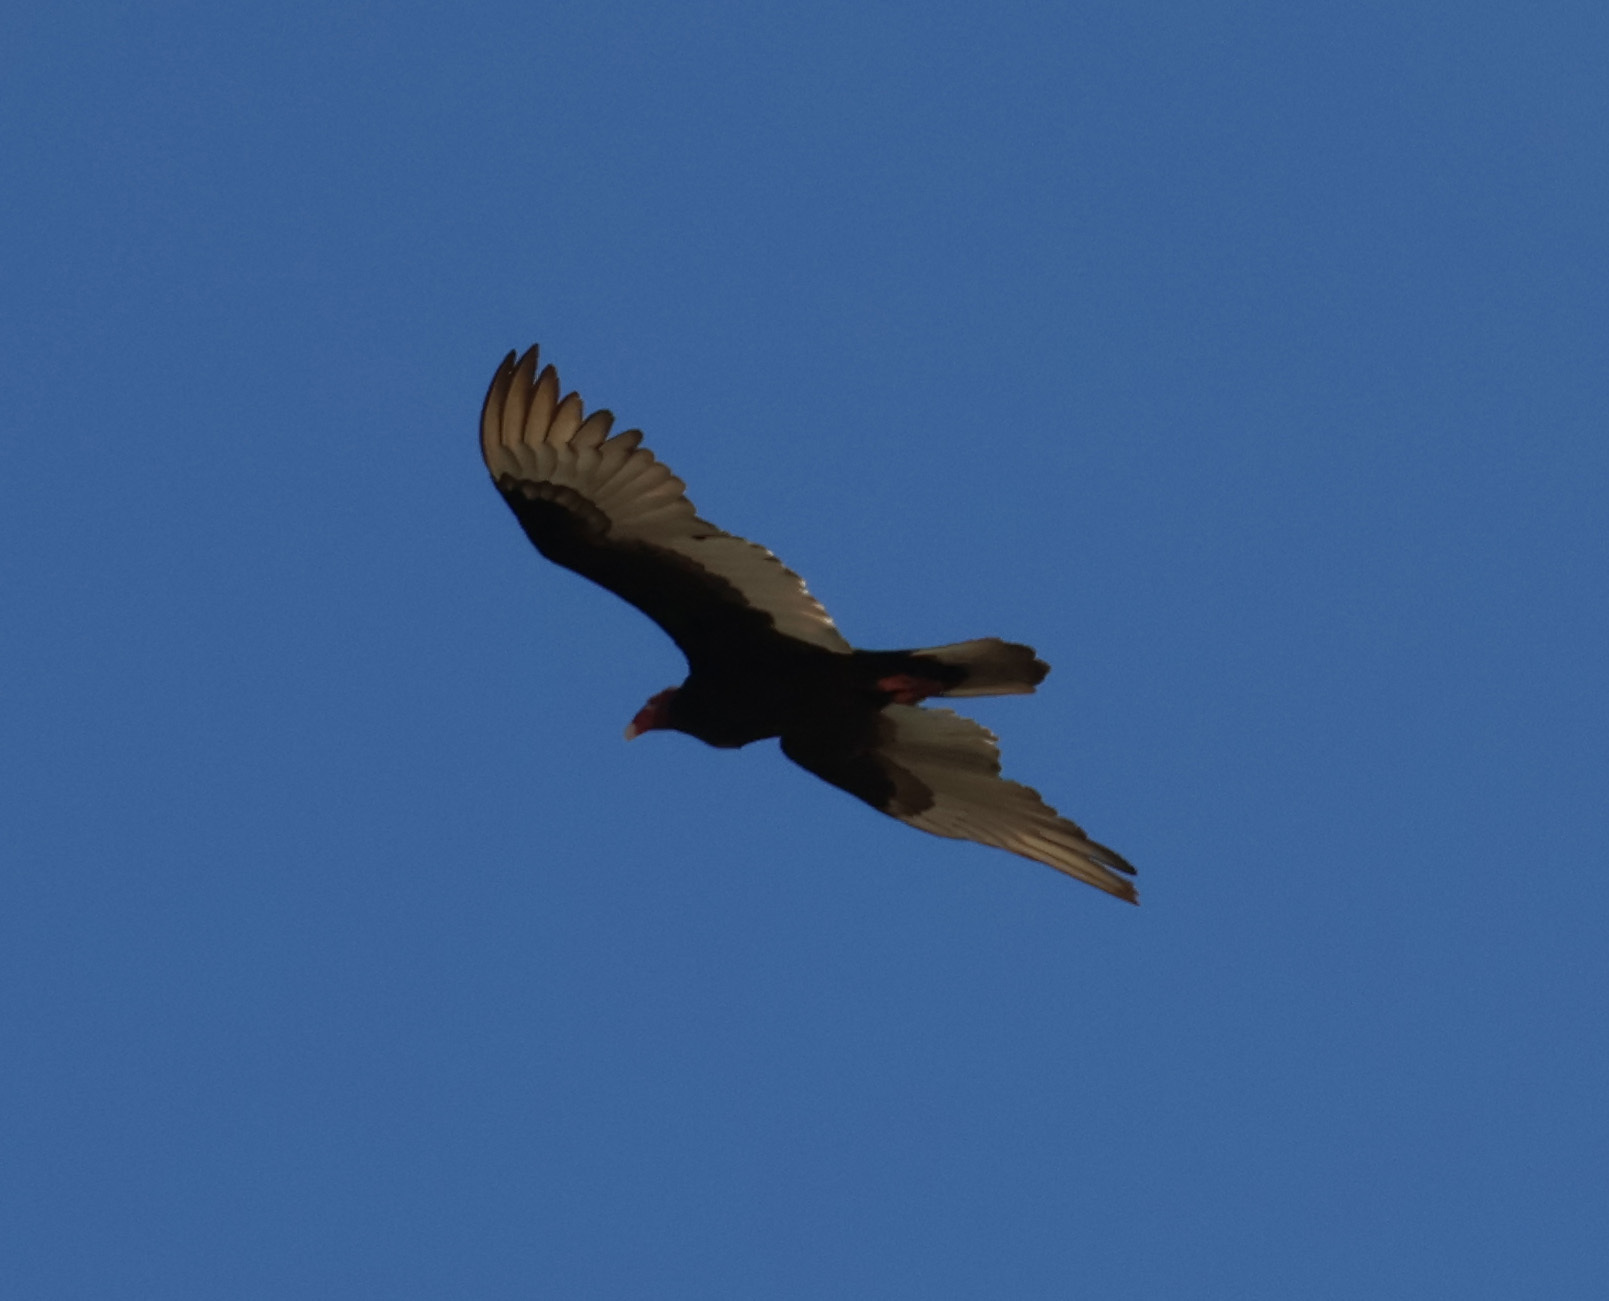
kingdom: Animalia
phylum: Chordata
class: Aves
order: Accipitriformes
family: Cathartidae
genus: Cathartes
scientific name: Cathartes aura
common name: Turkey vulture
